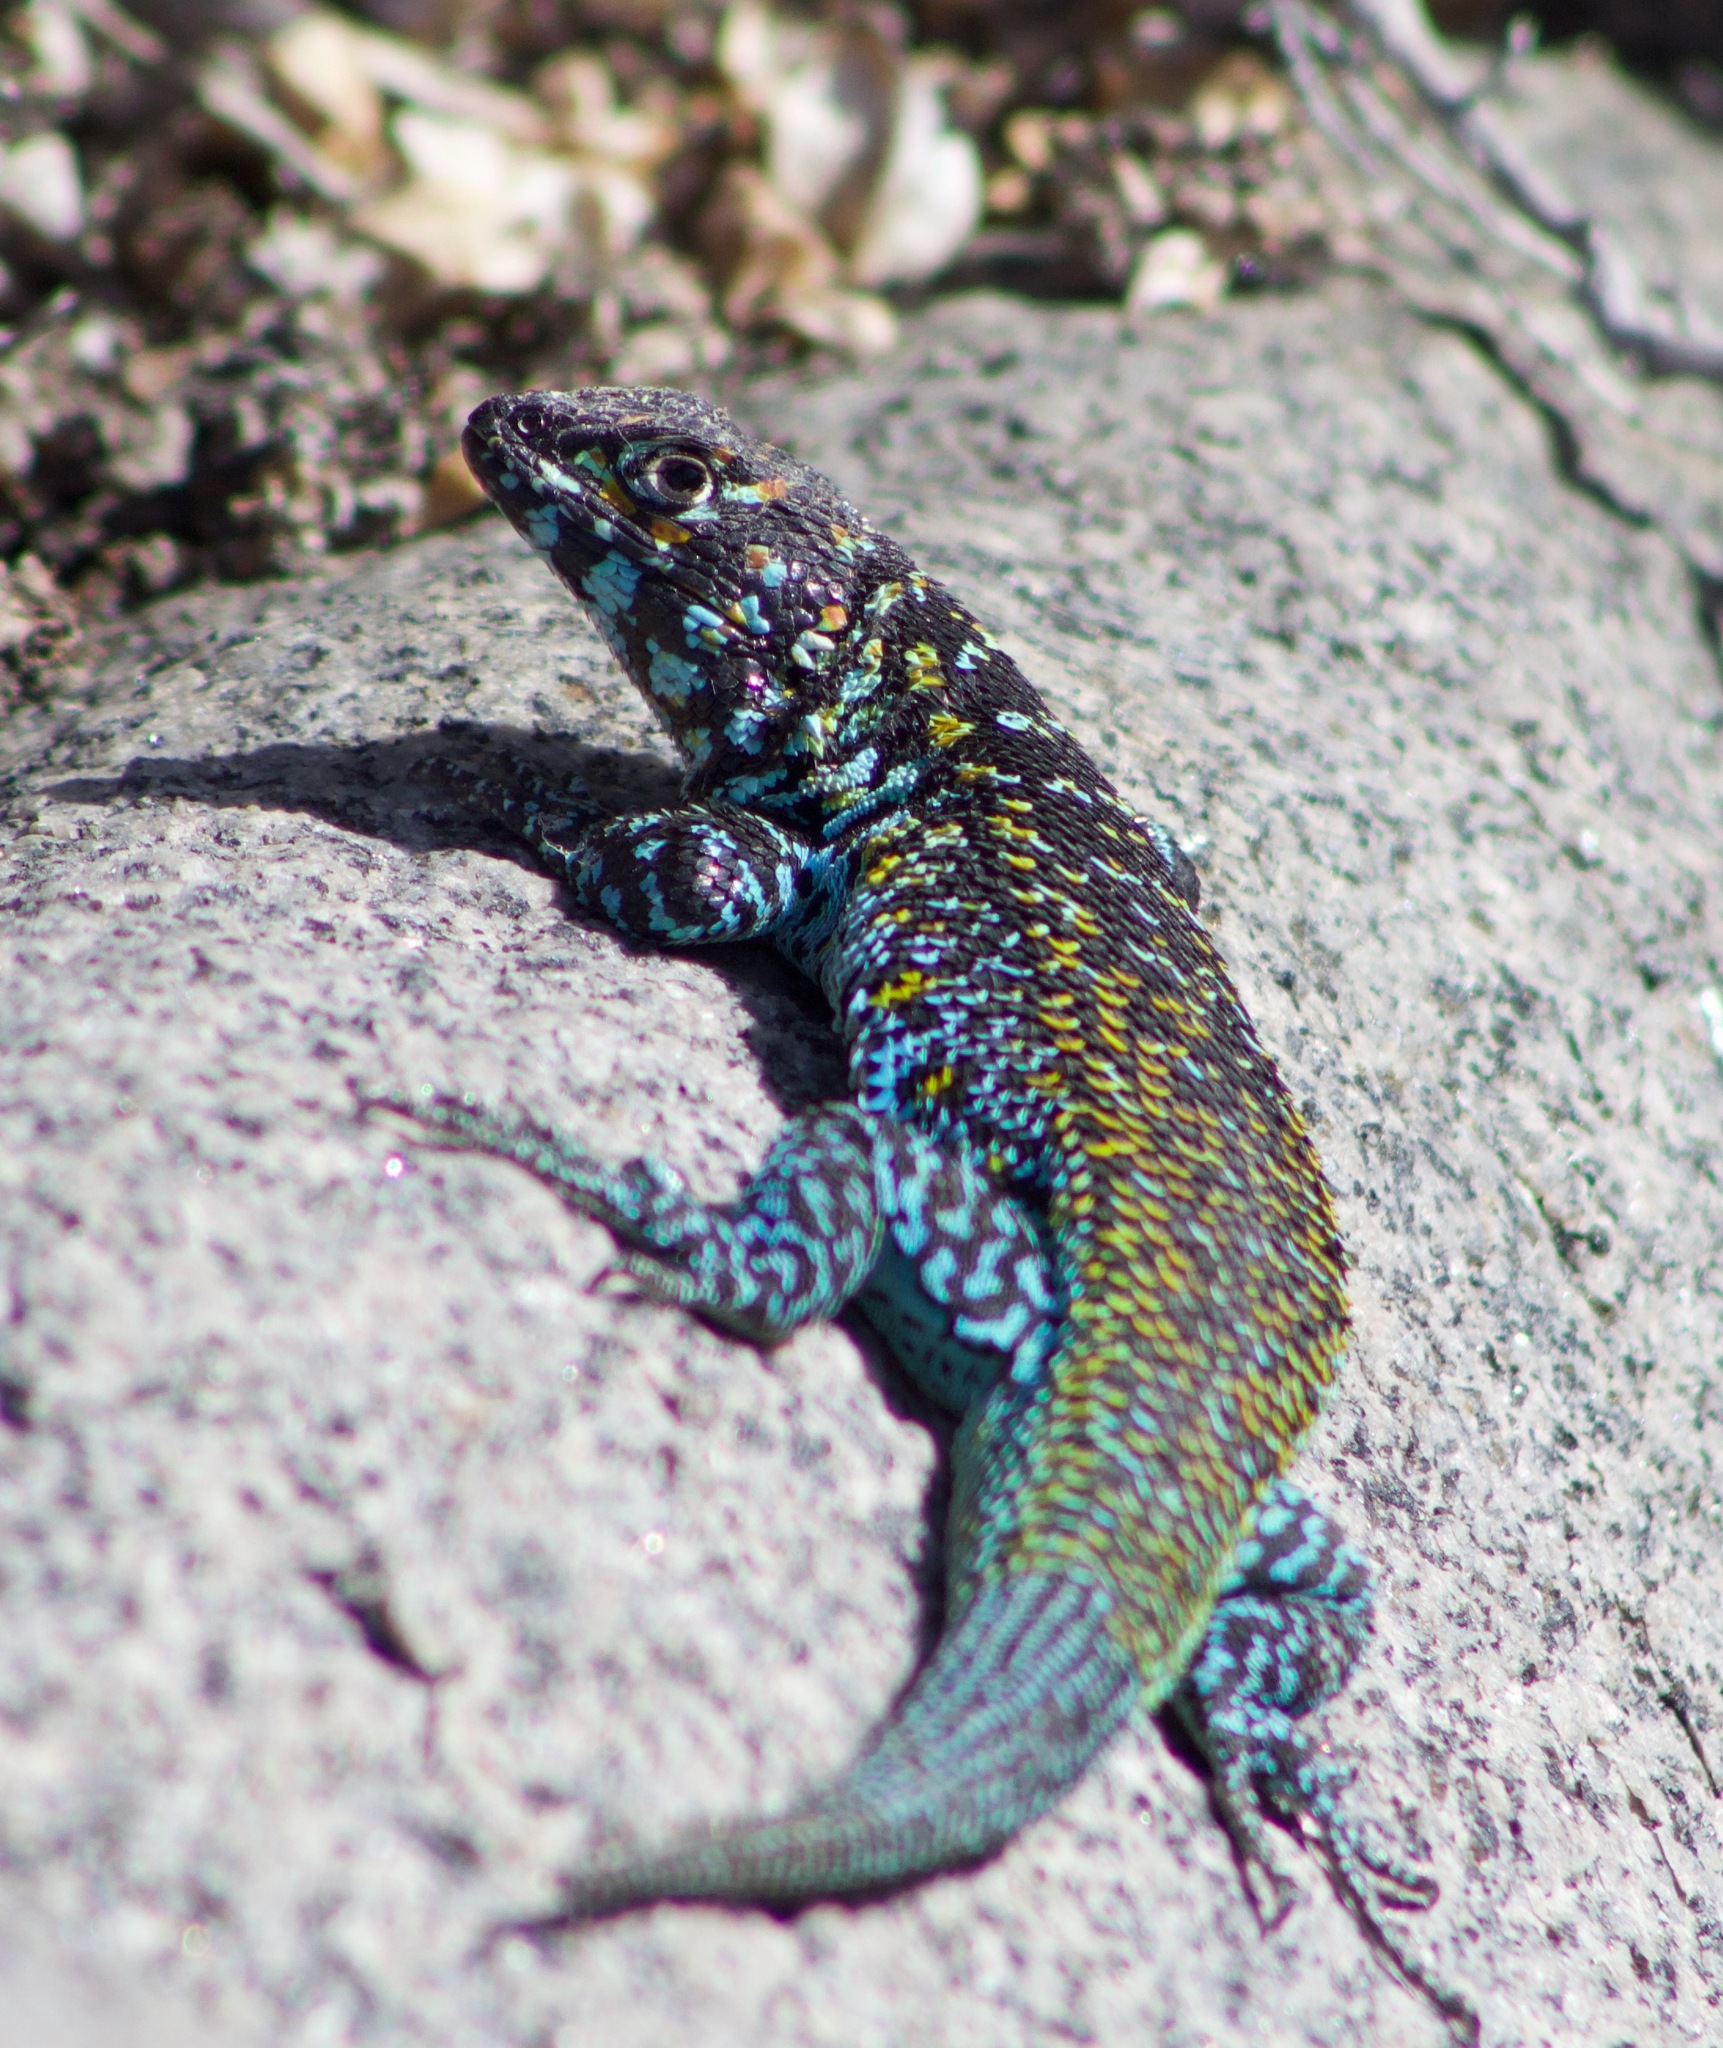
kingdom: Animalia
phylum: Chordata
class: Squamata
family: Liolaemidae
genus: Liolaemus
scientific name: Liolaemus zapallarensis
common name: Zapallaren tree iguana
